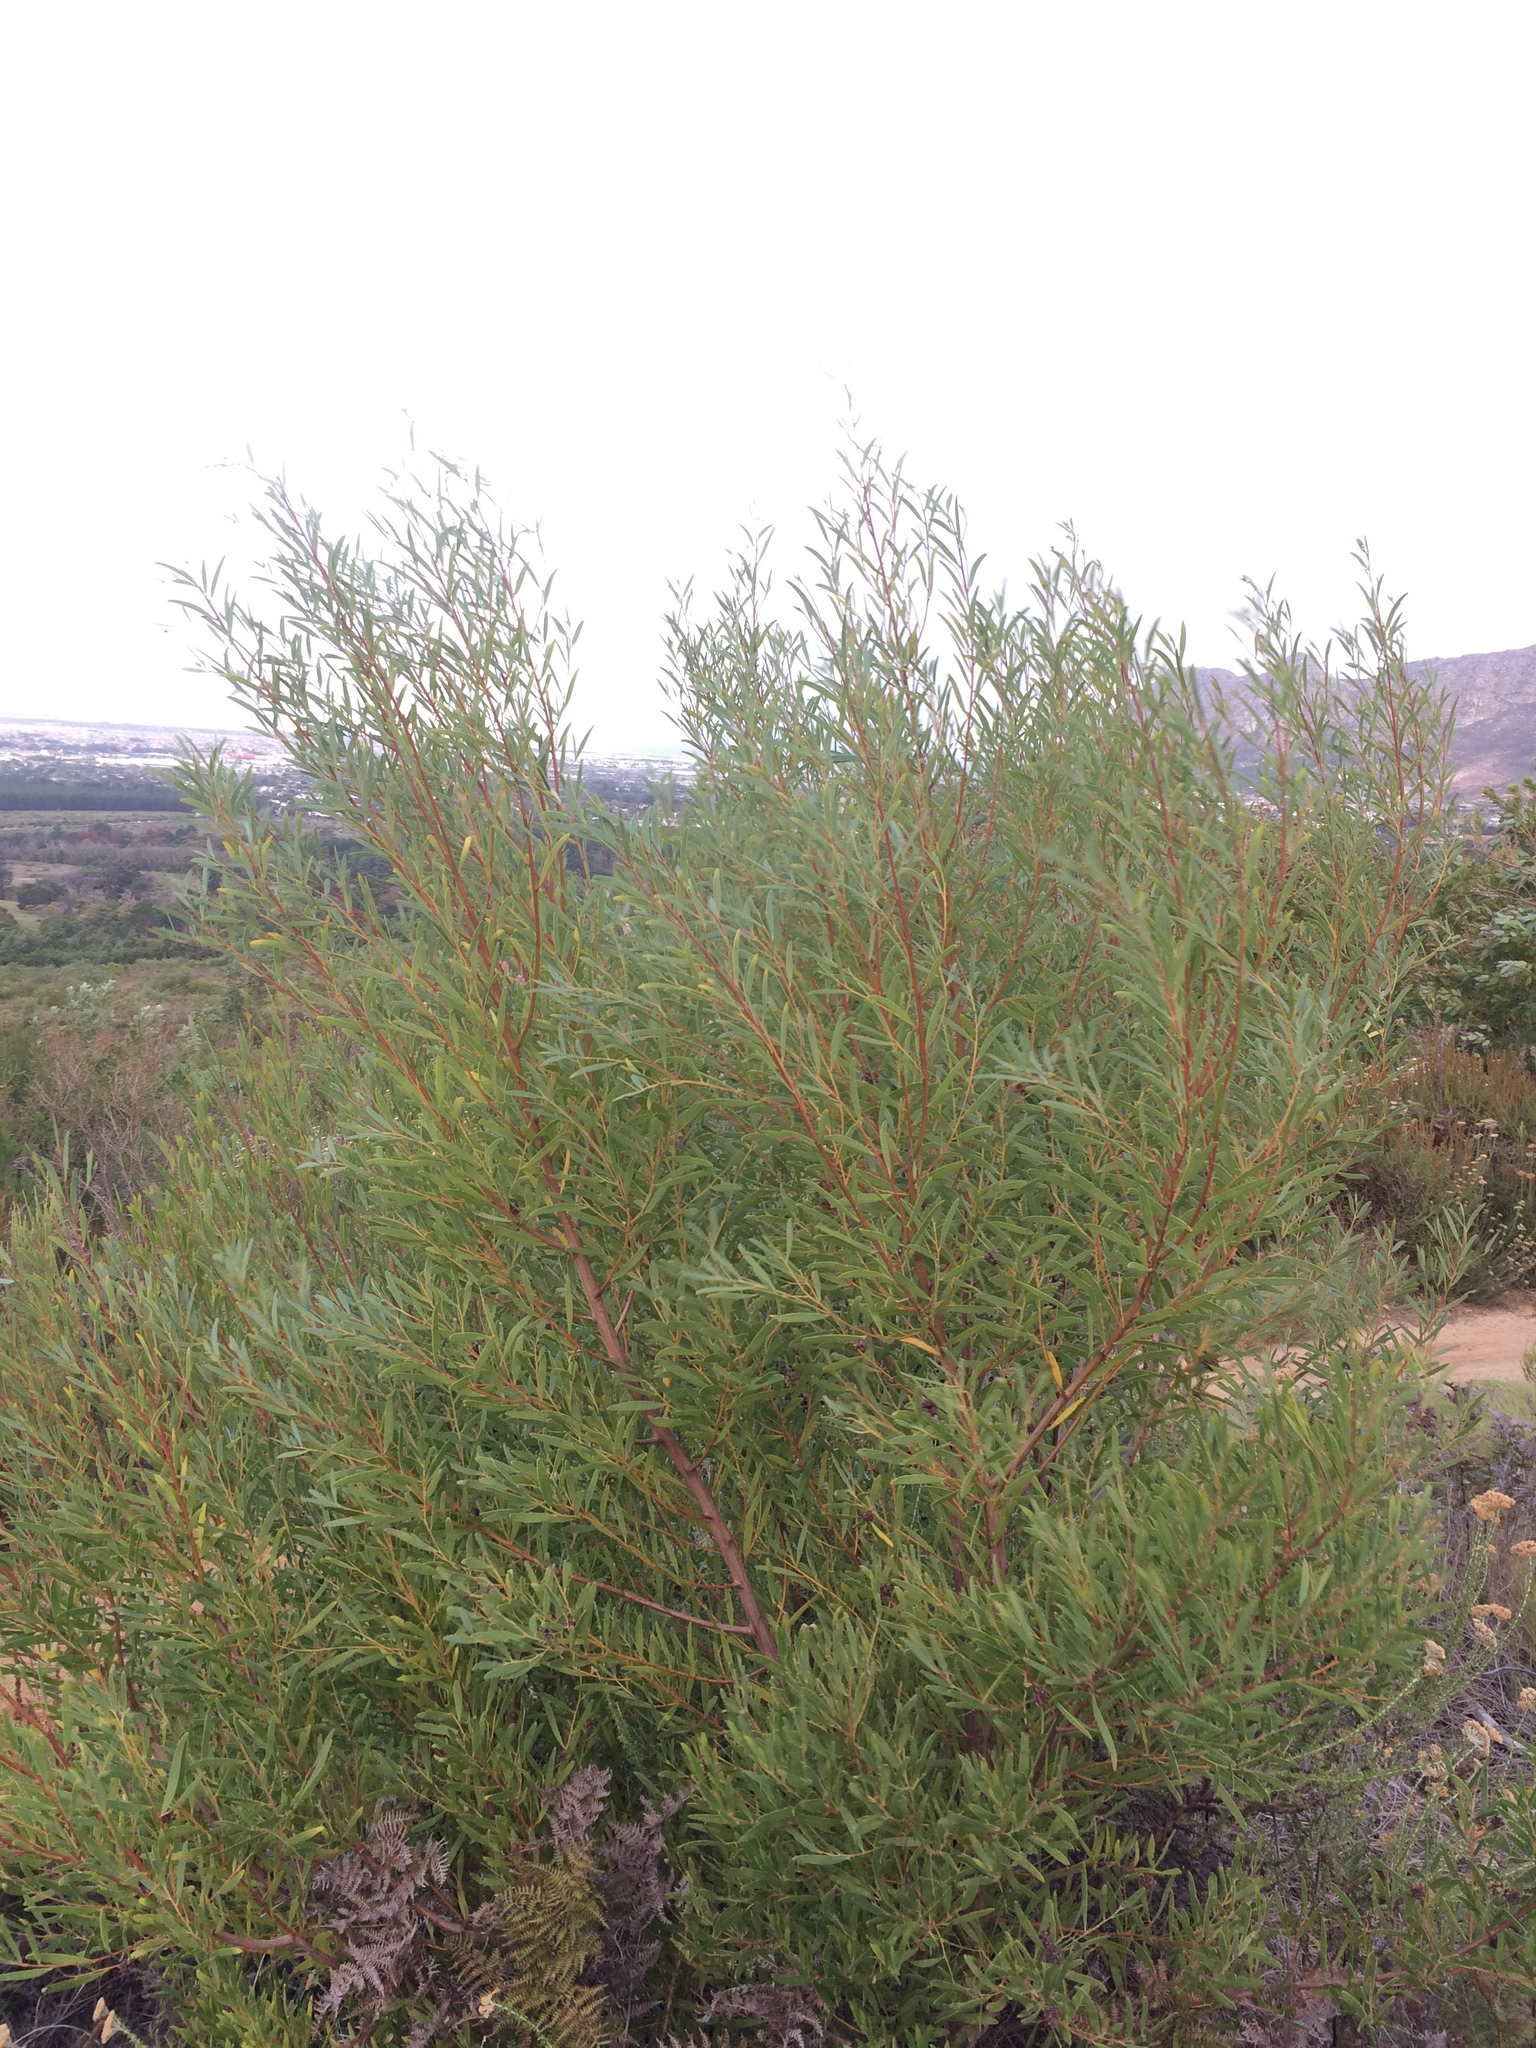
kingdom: Plantae
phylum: Tracheophyta
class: Magnoliopsida
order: Fabales
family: Fabaceae
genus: Acacia
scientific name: Acacia cyclops
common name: Coastal wattle
